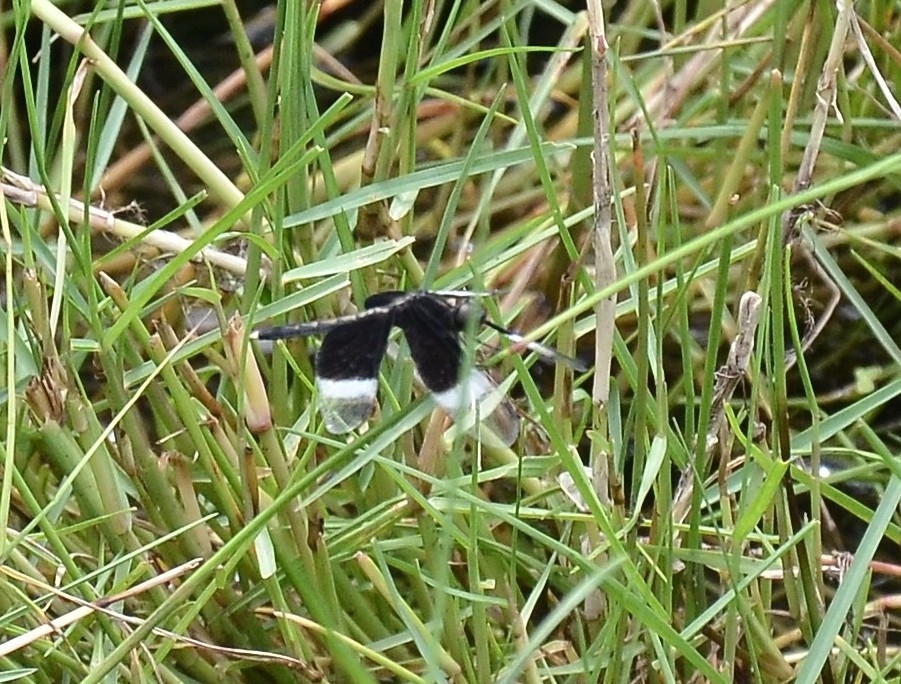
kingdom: Animalia
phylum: Arthropoda
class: Insecta
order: Odonata
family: Libellulidae
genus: Neurothemis
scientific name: Neurothemis tullia
